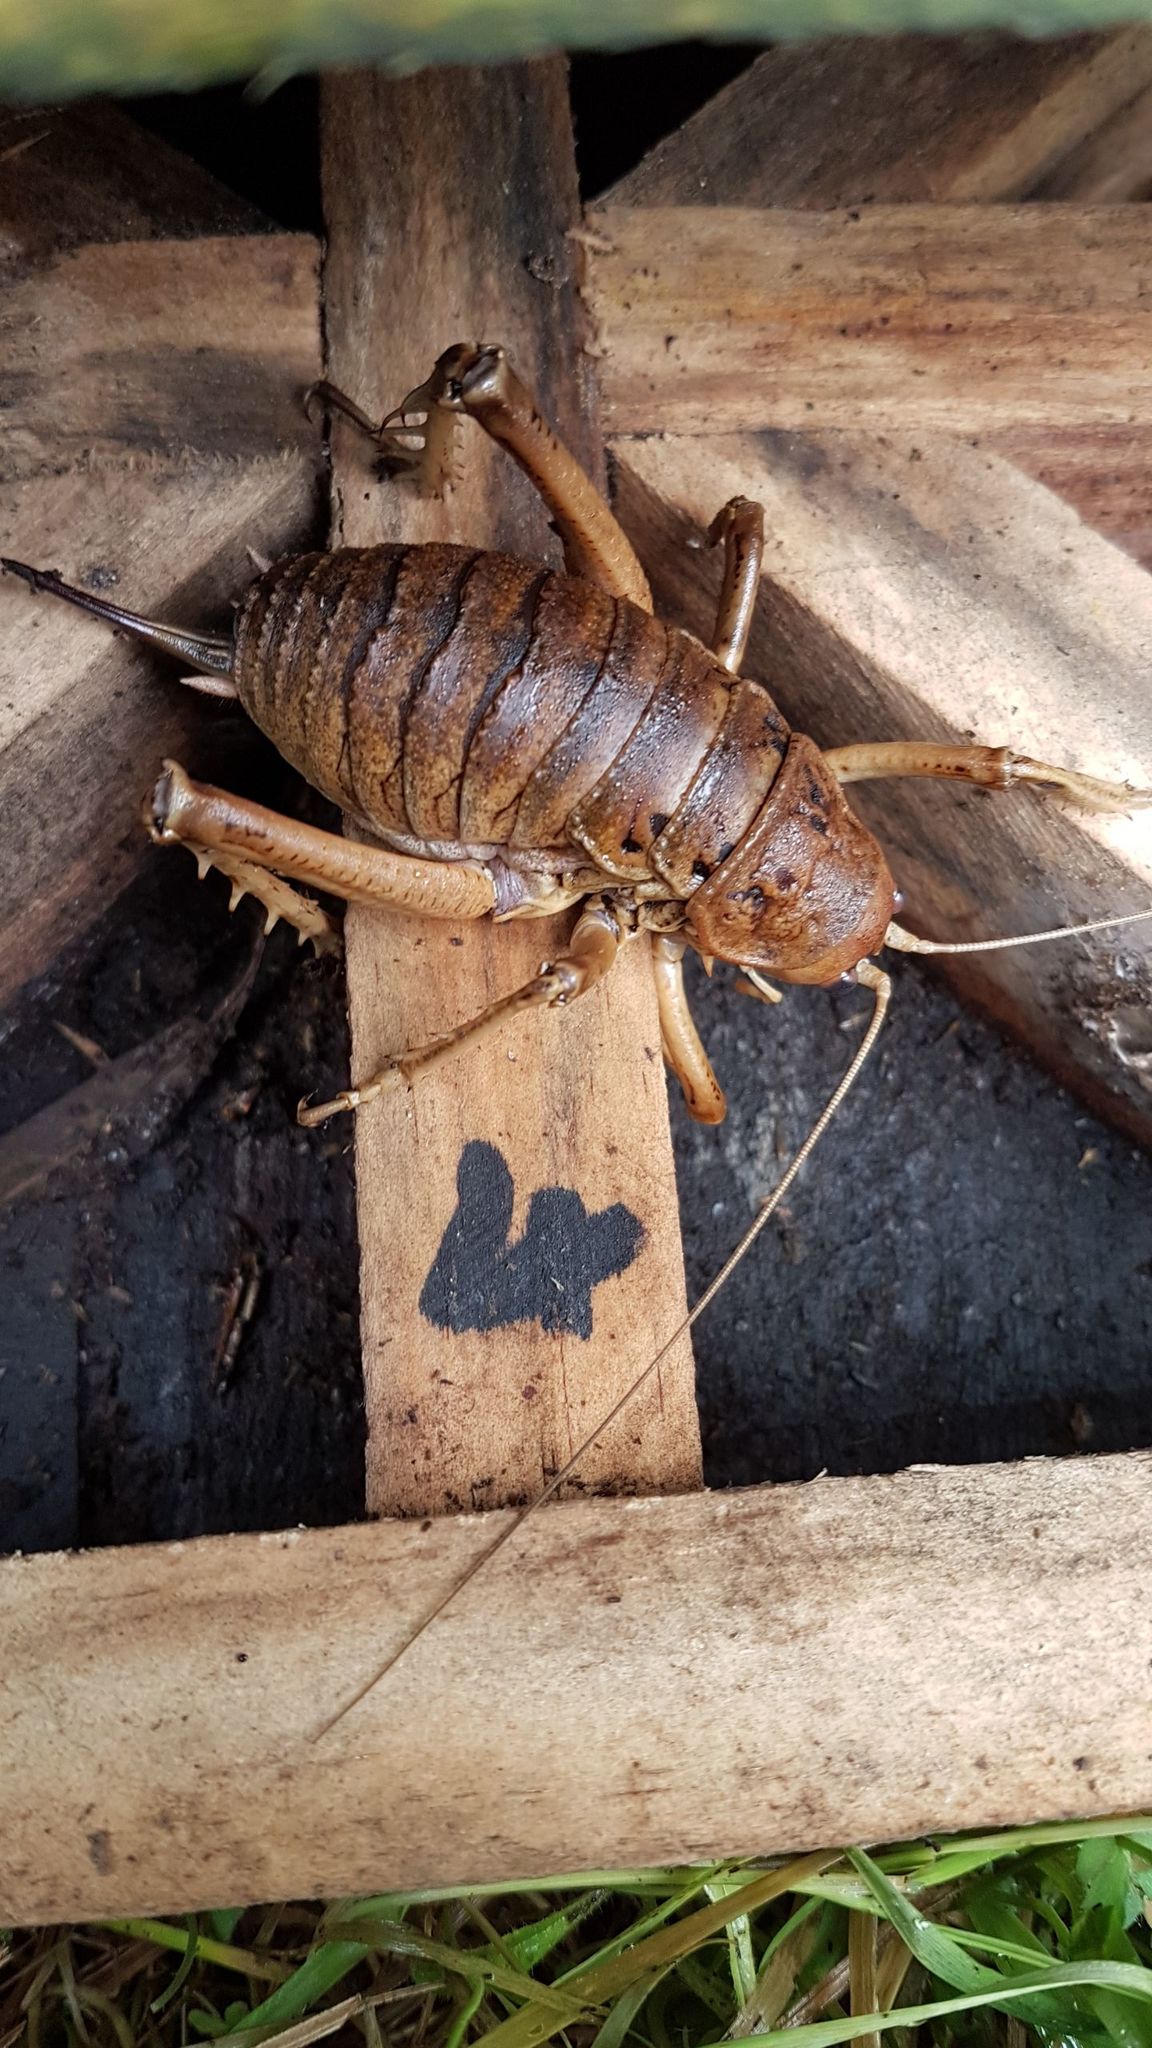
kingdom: Animalia
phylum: Arthropoda
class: Insecta
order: Orthoptera
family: Anostostomatidae
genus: Deinacrida
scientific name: Deinacrida rugosa
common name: Stephens island weta
